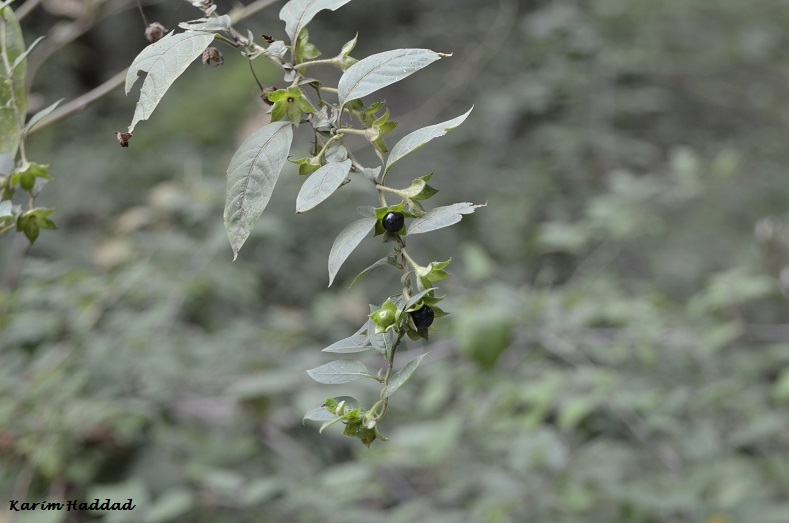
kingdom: Plantae
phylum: Tracheophyta
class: Magnoliopsida
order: Solanales
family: Solanaceae
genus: Atropa
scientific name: Atropa belladonna
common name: Deadly nightshade
